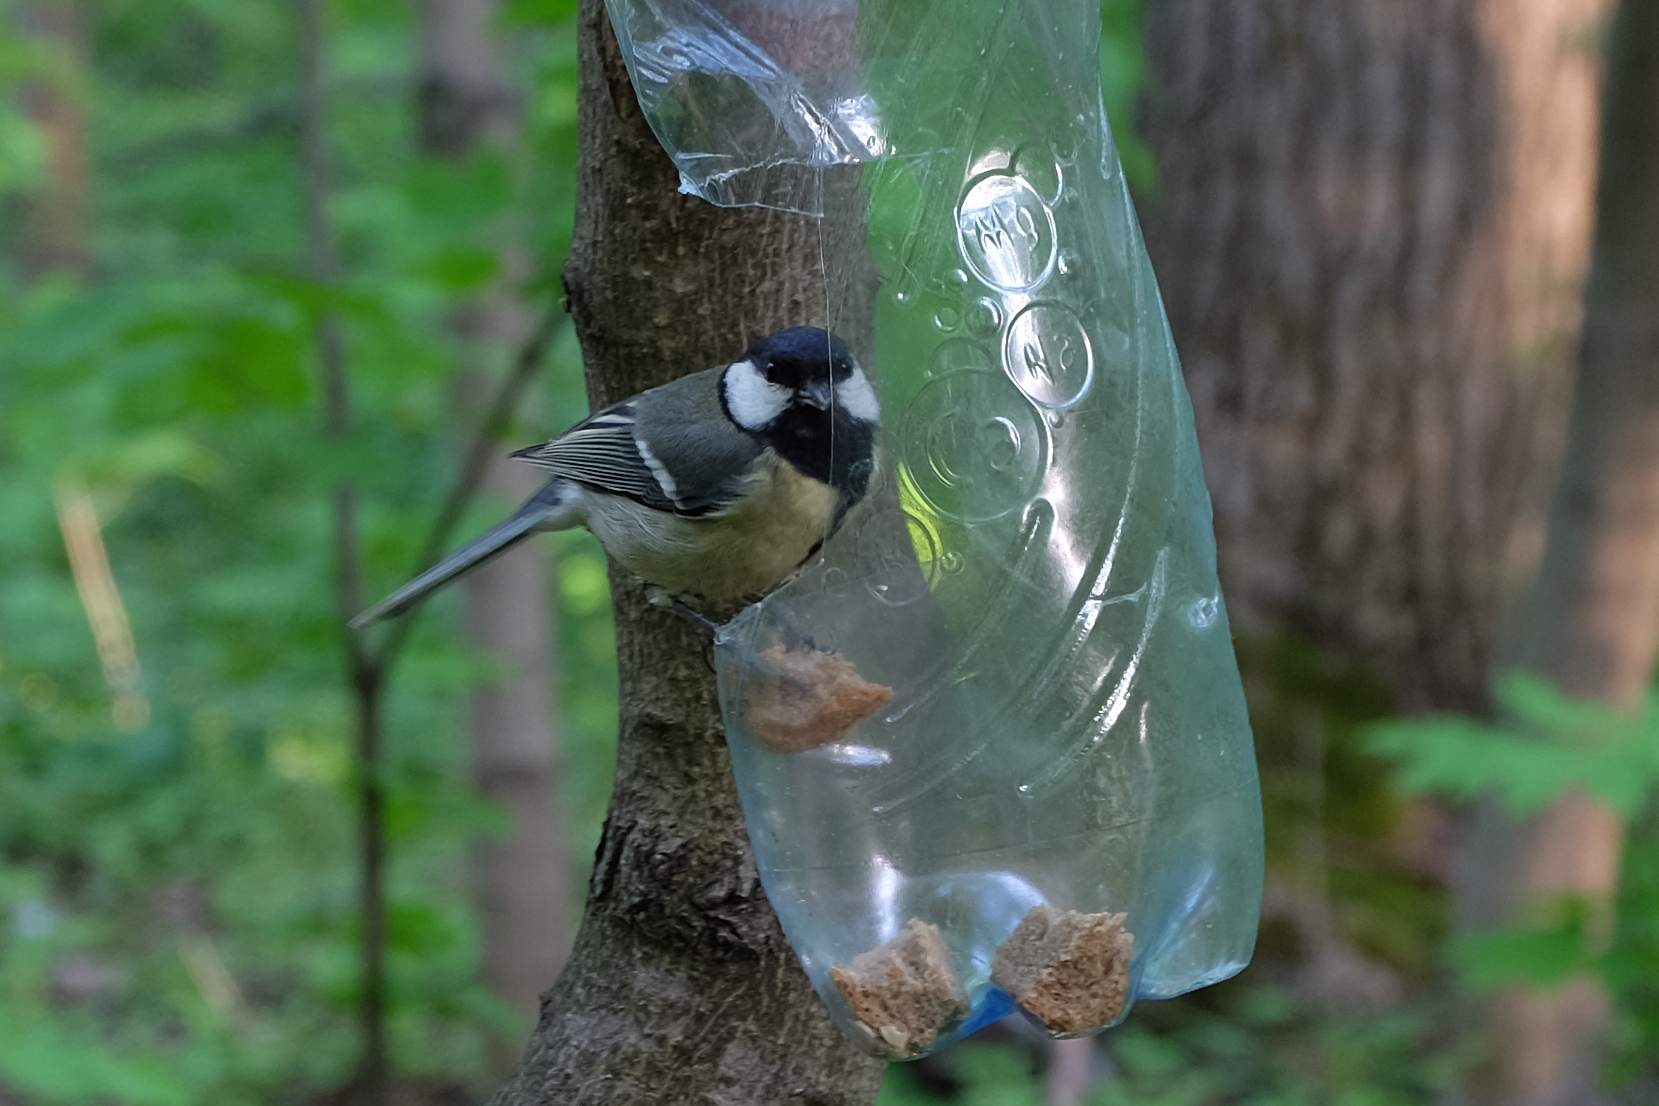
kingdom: Animalia
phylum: Chordata
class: Aves
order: Passeriformes
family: Paridae
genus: Parus
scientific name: Parus major
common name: Great tit
